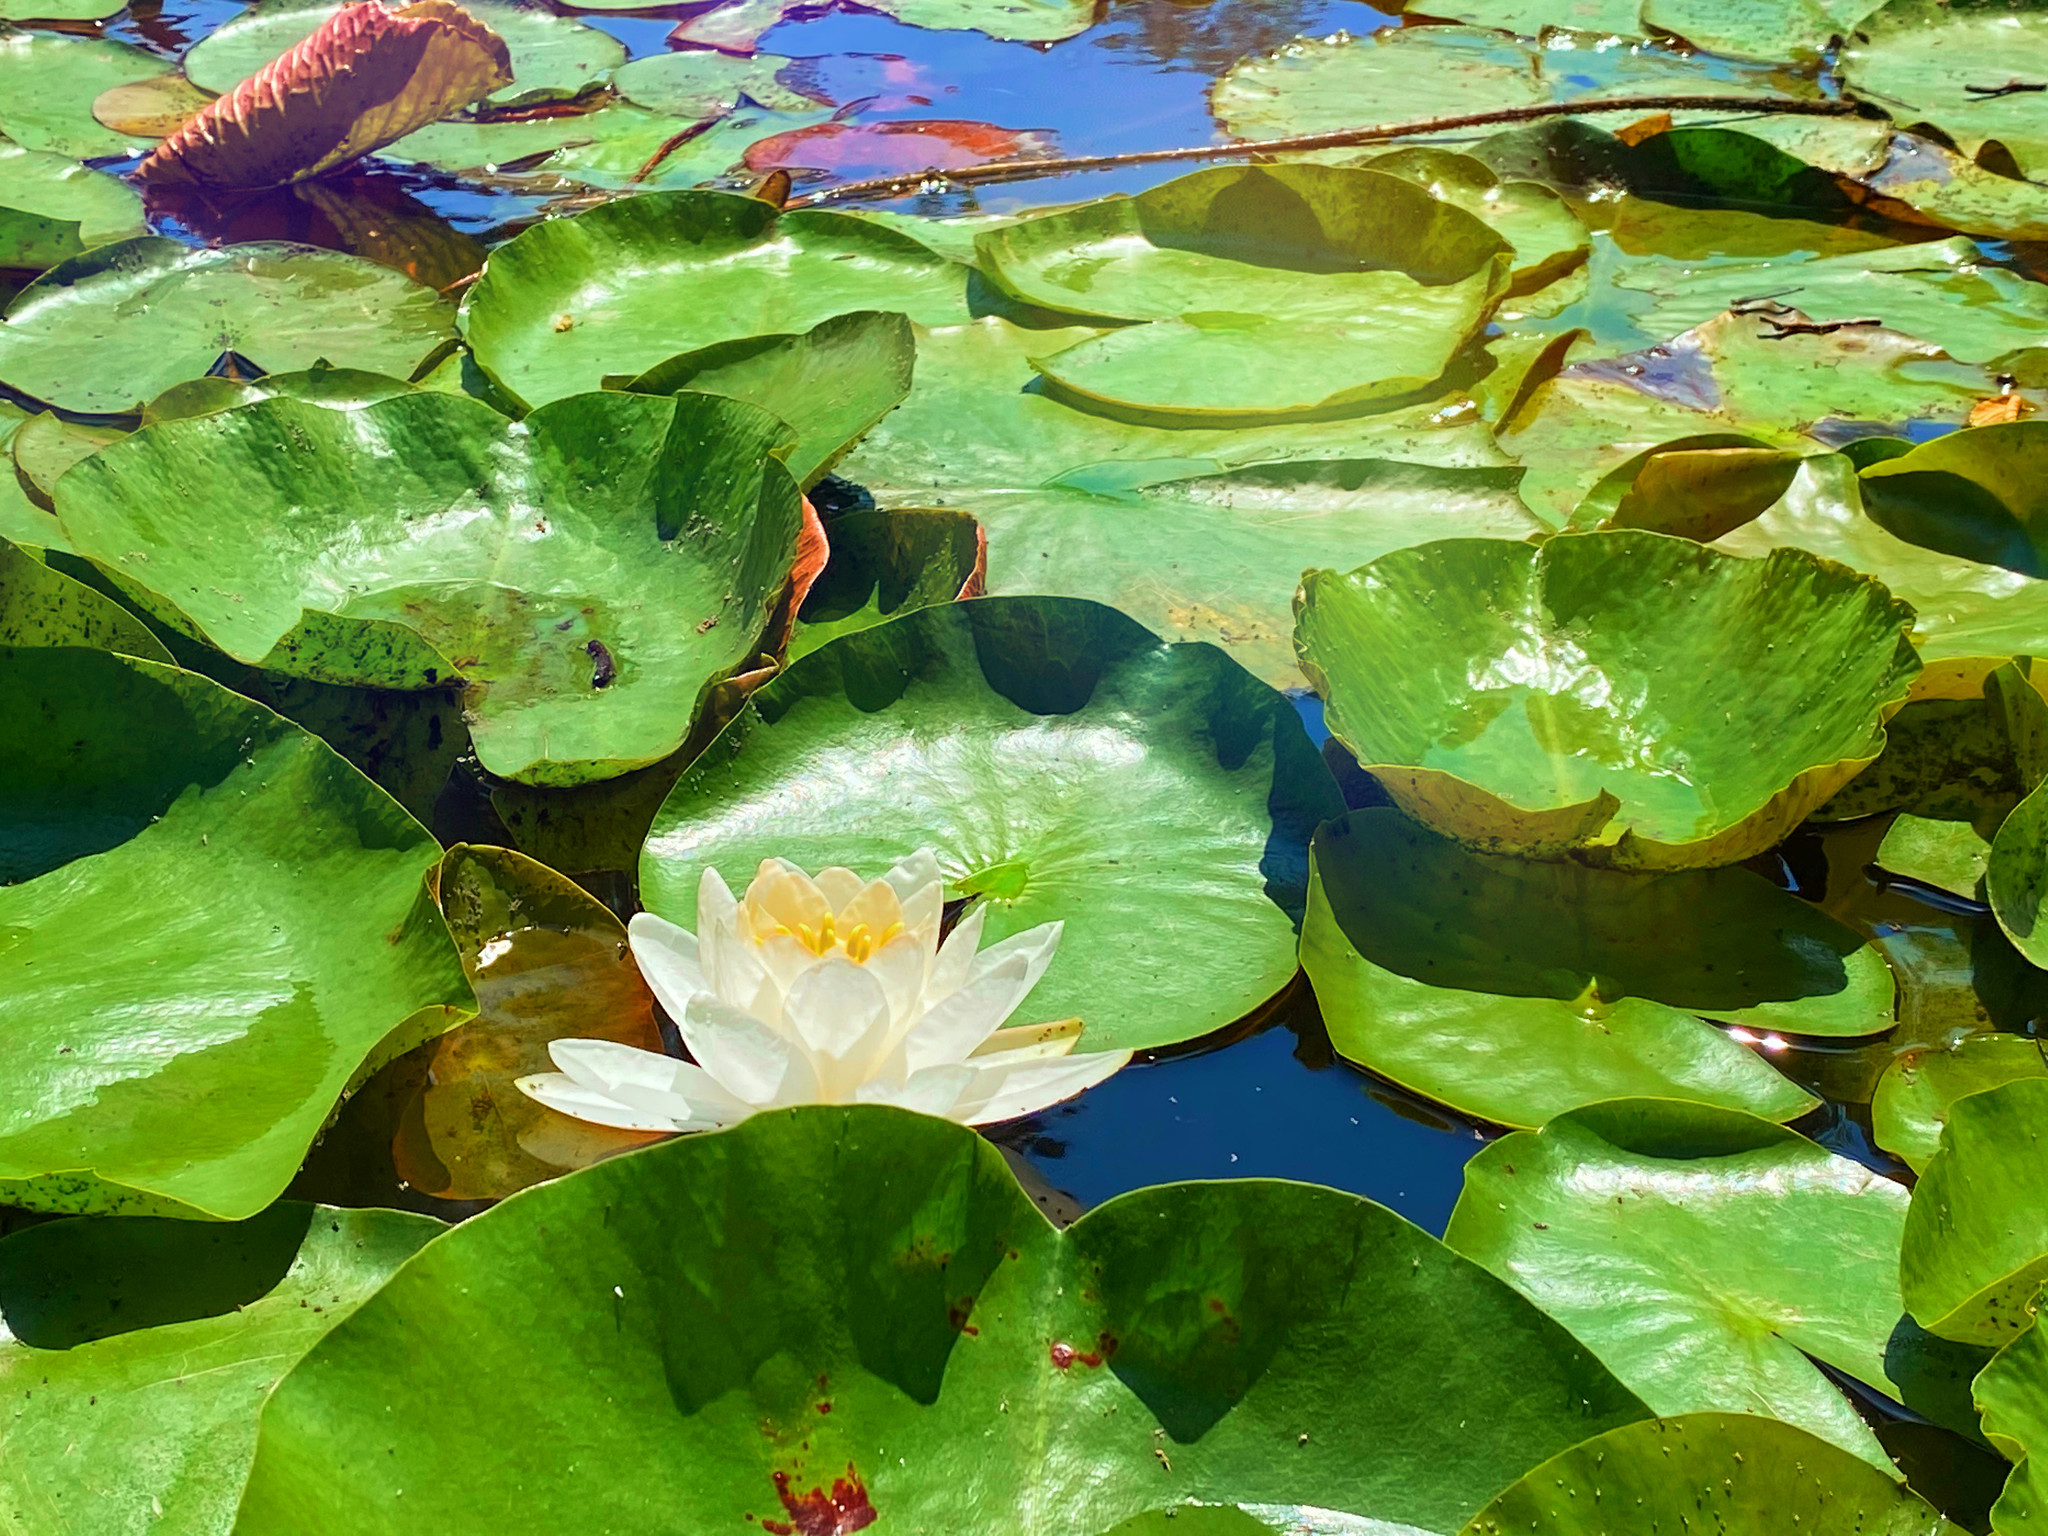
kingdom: Plantae
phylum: Tracheophyta
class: Magnoliopsida
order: Nymphaeales
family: Nymphaeaceae
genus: Nymphaea
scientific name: Nymphaea odorata
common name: Fragrant water-lily
